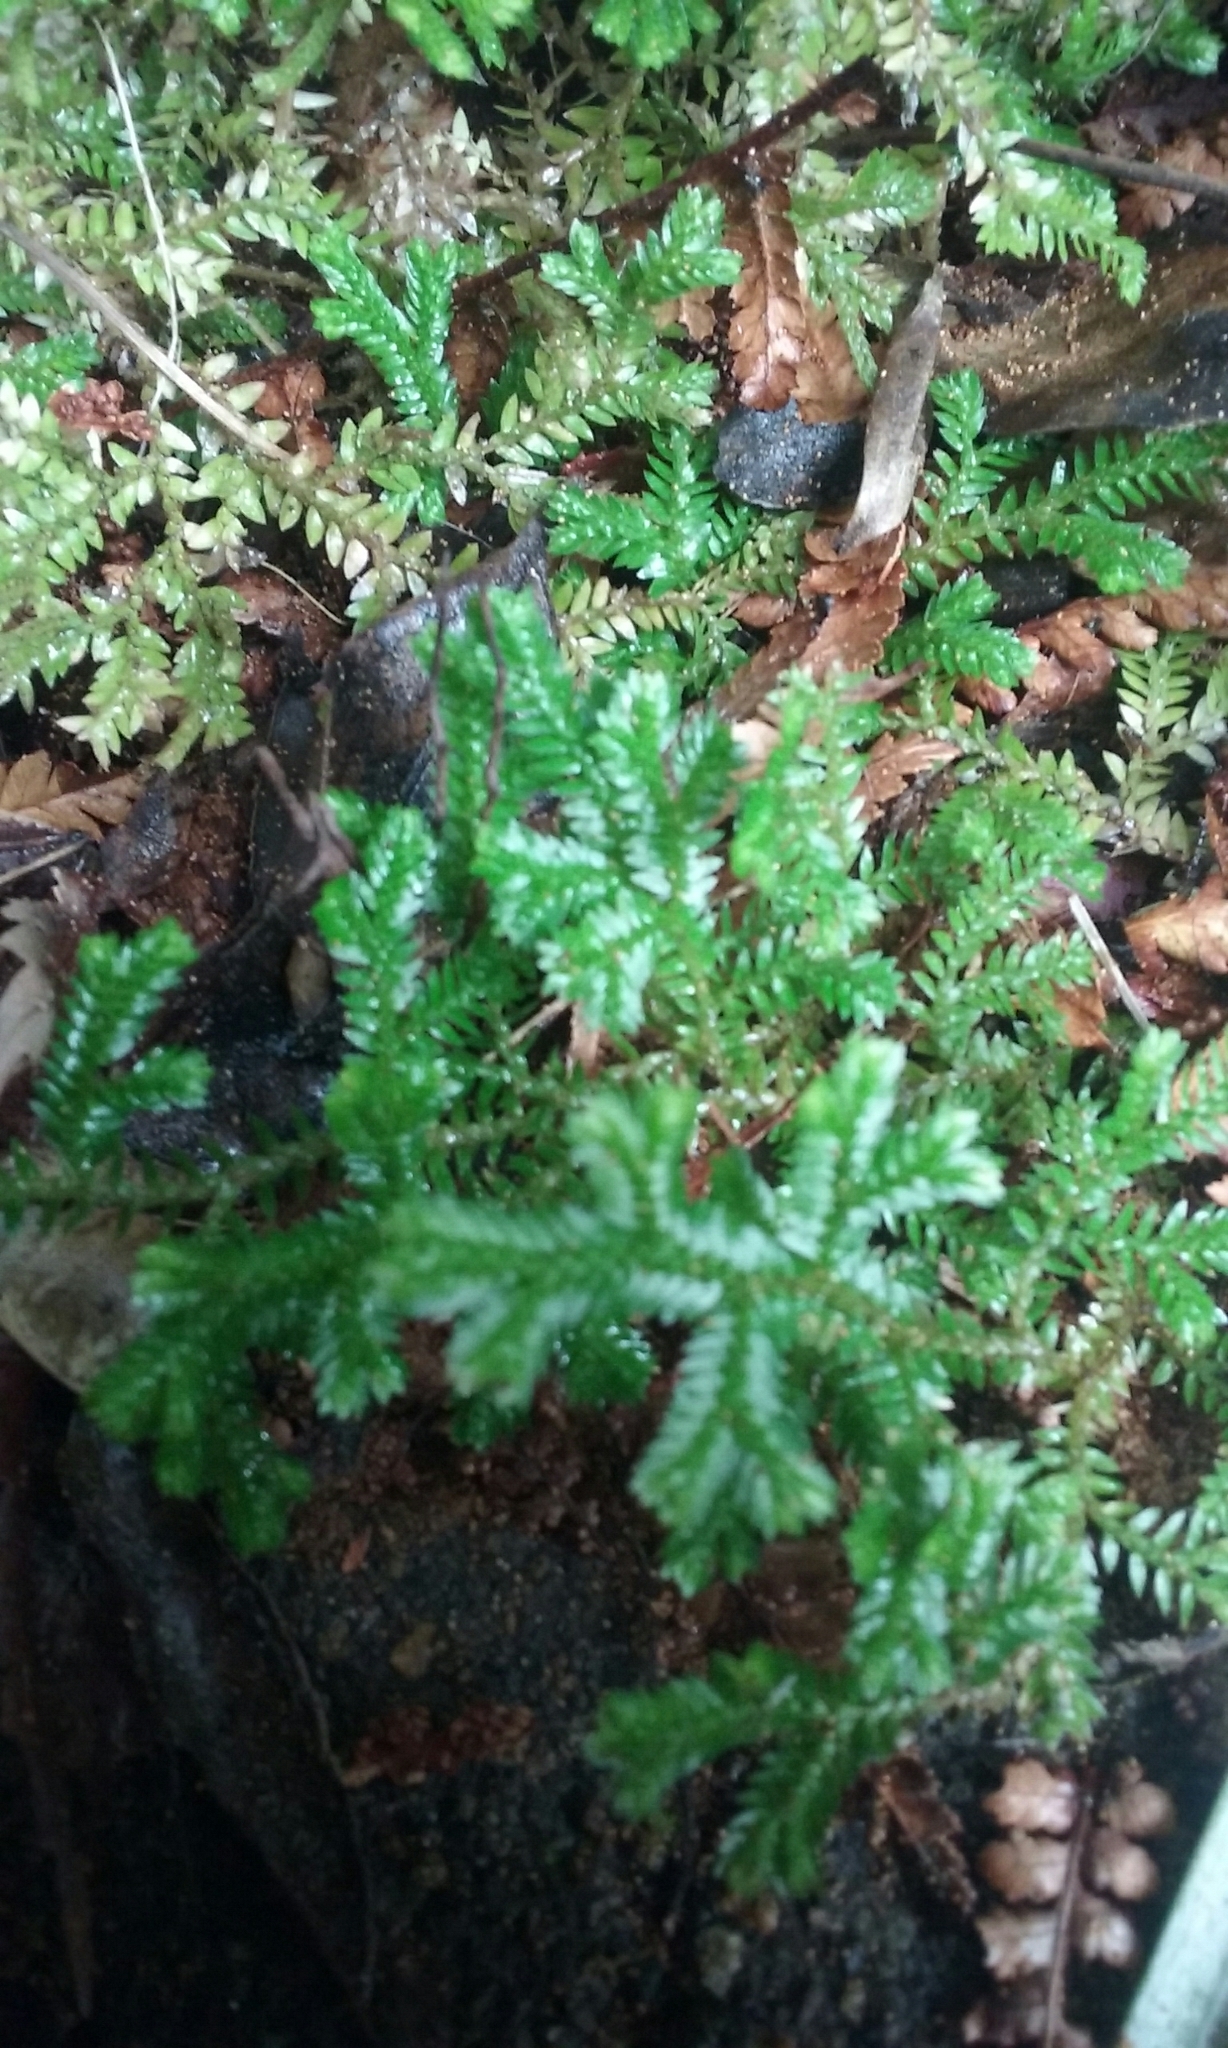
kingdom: Plantae
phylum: Tracheophyta
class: Lycopodiopsida
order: Selaginellales
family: Selaginellaceae
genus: Selaginella
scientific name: Selaginella kraussiana
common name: Krauss' spikemoss
